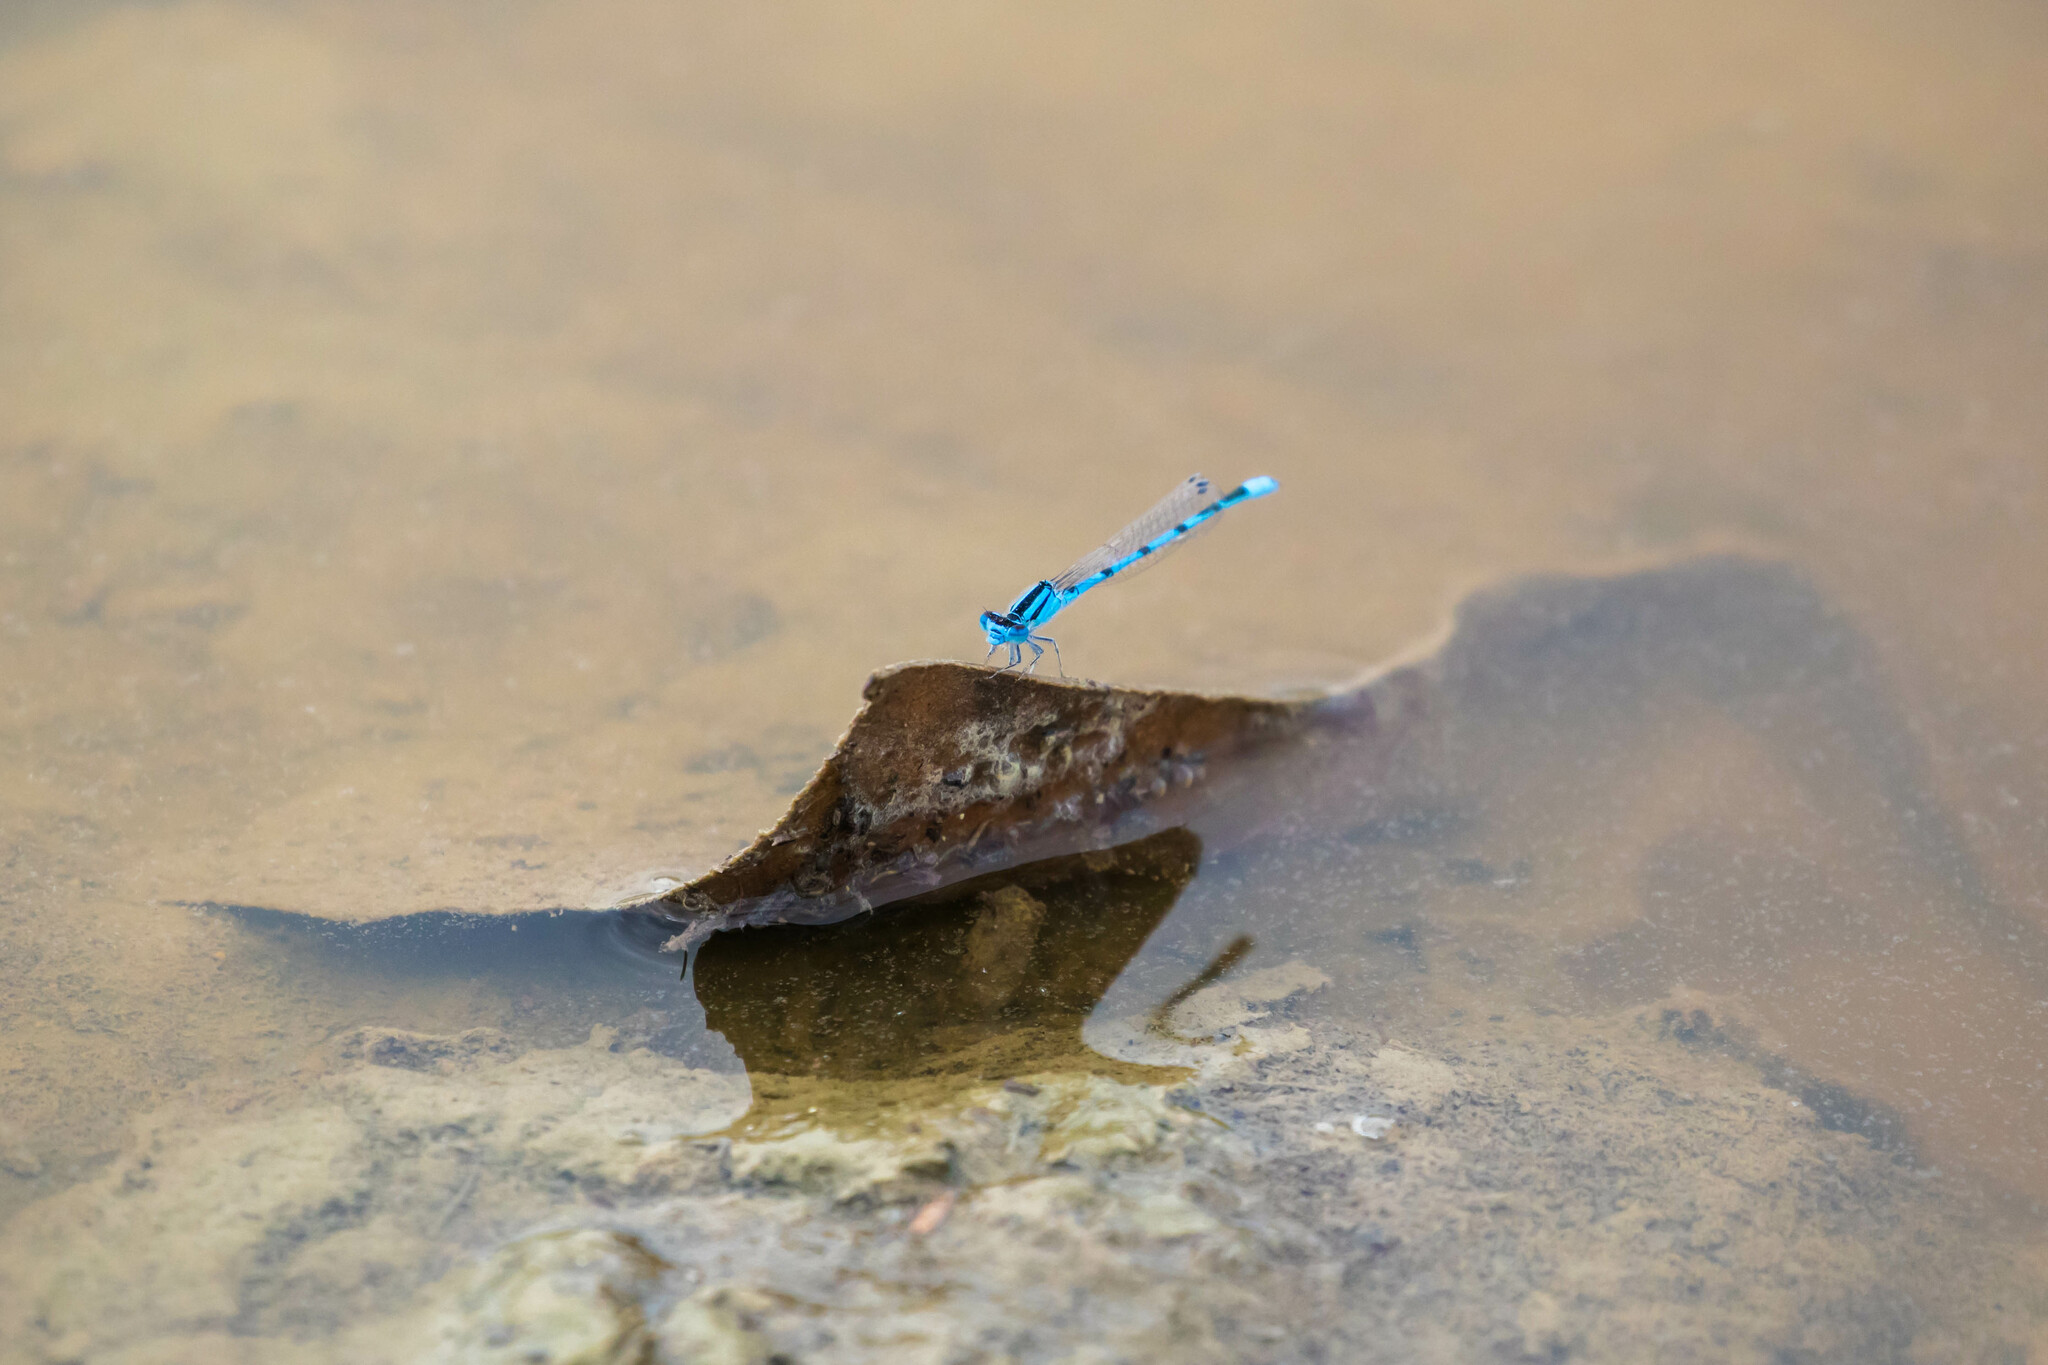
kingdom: Animalia
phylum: Arthropoda
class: Insecta
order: Odonata
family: Coenagrionidae
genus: Enallagma
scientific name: Enallagma civile
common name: Damselfly
